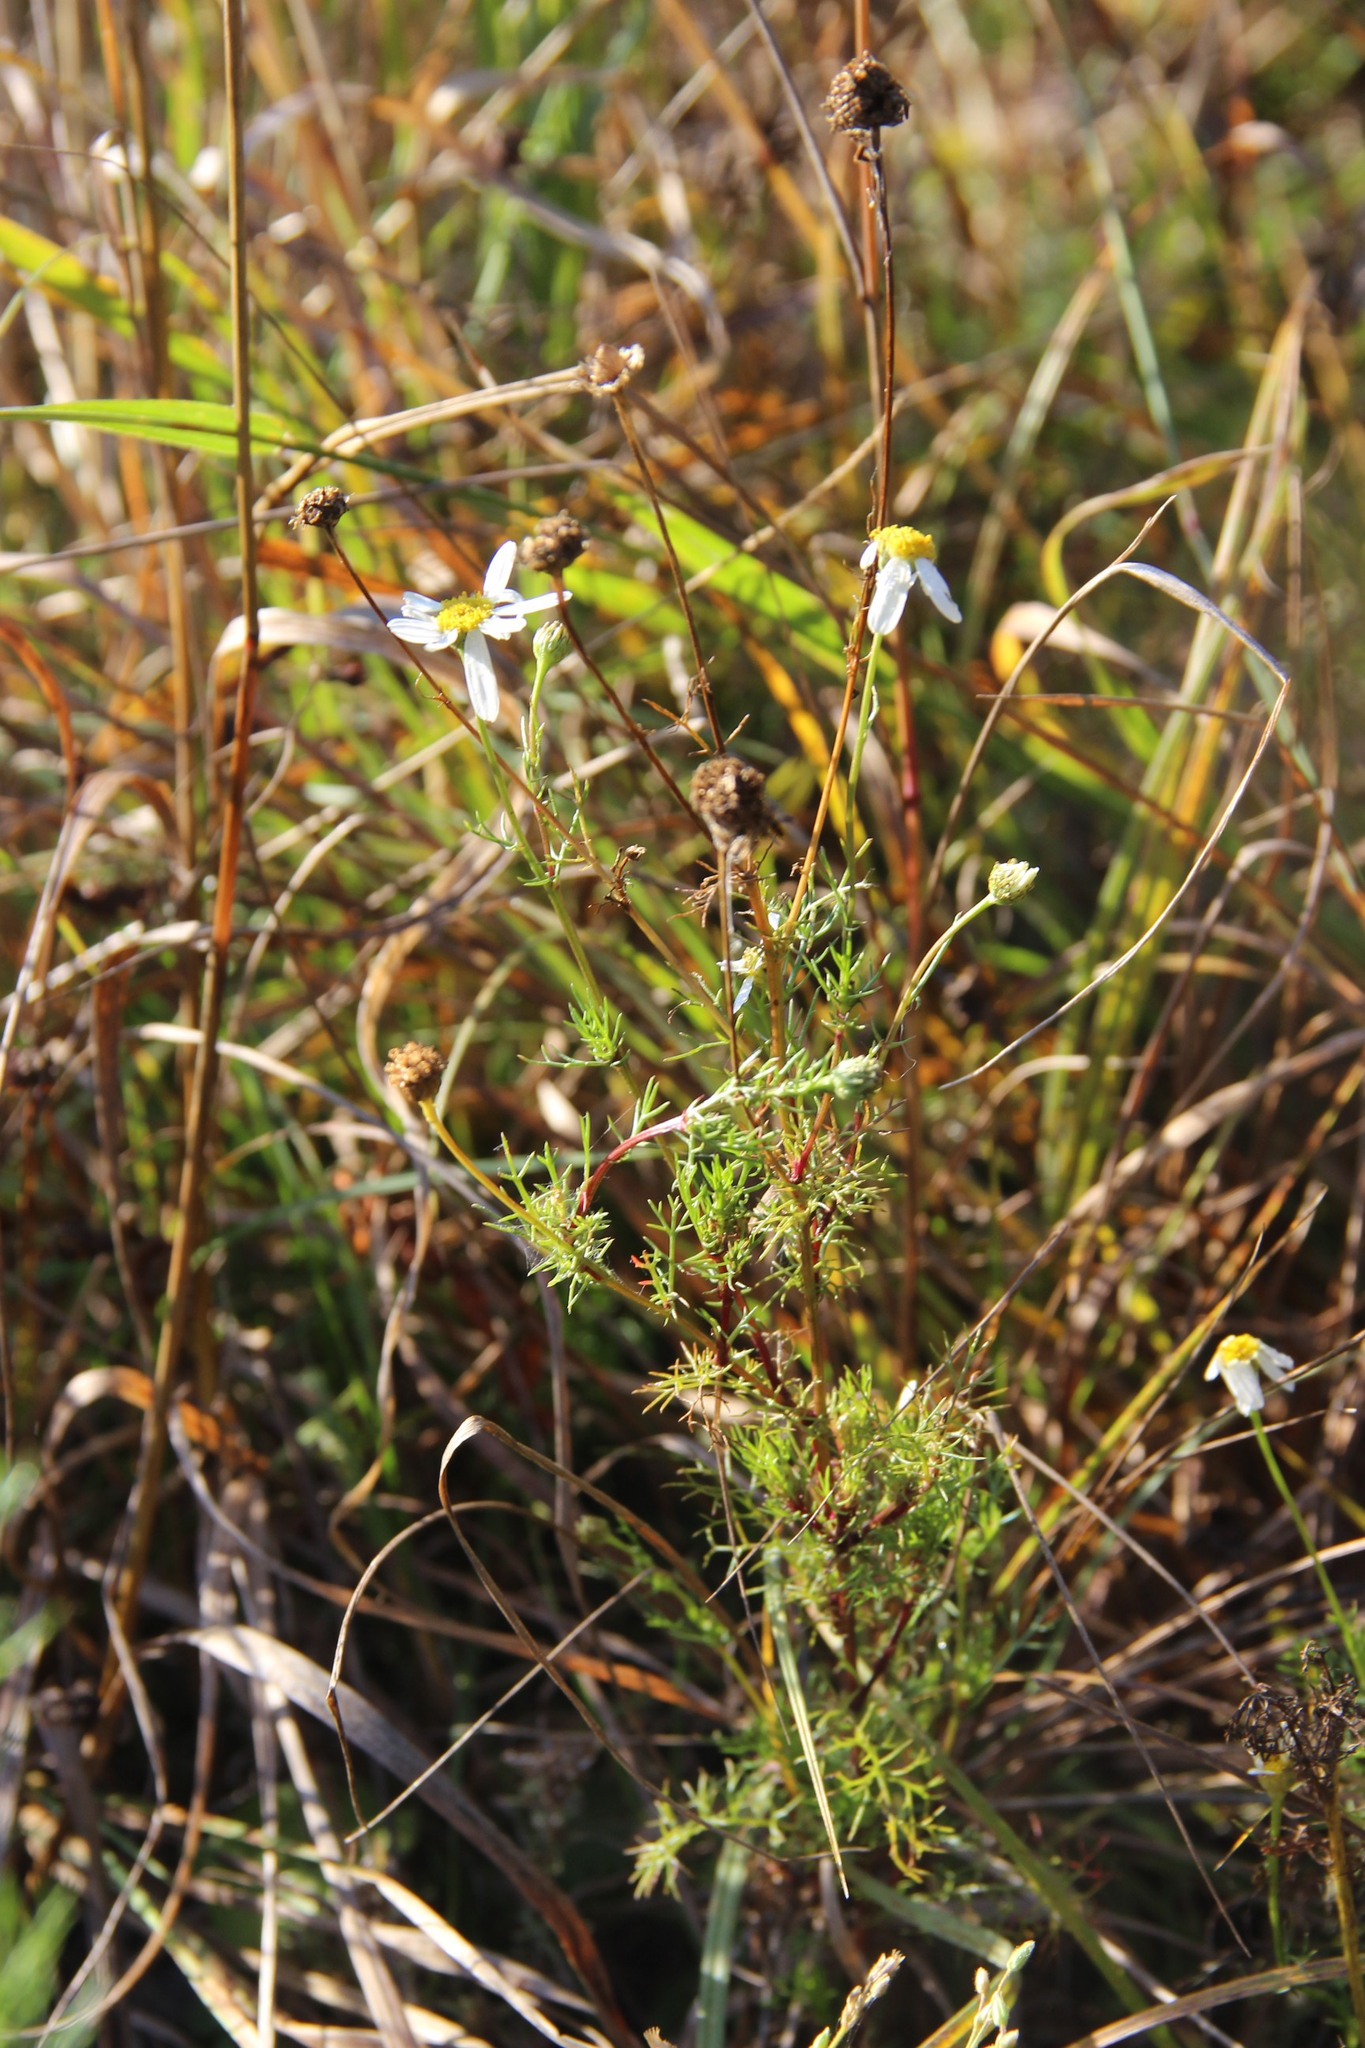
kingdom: Plantae
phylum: Tracheophyta
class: Magnoliopsida
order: Asterales
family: Asteraceae
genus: Tripleurospermum
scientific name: Tripleurospermum inodorum
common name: Scentless mayweed
